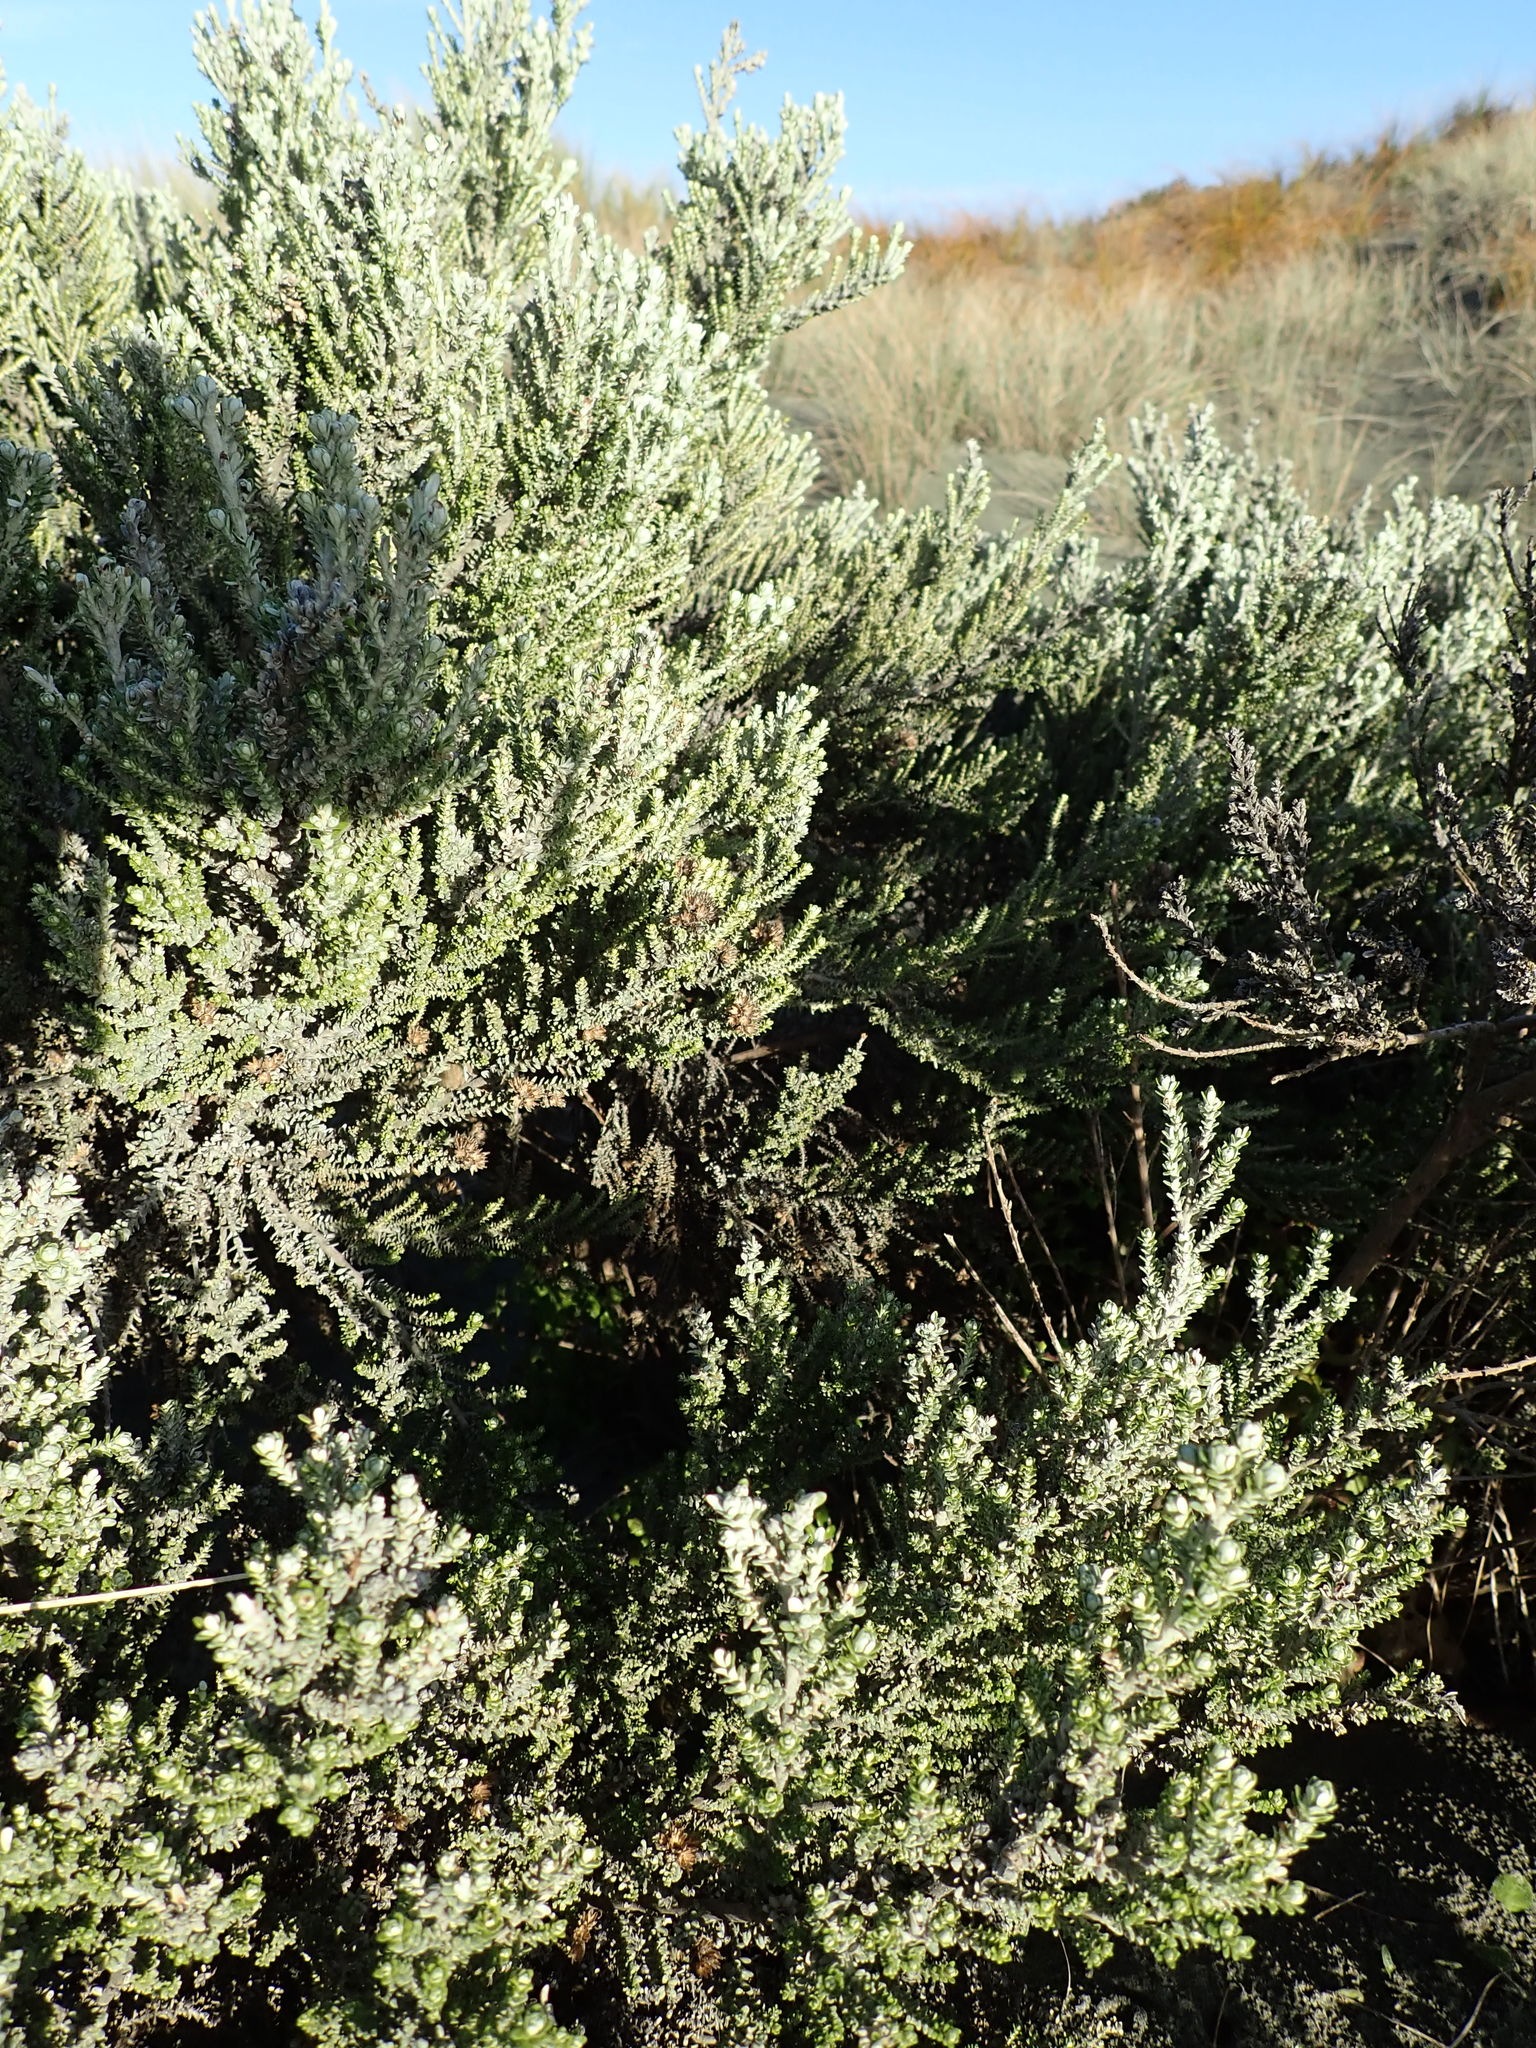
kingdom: Plantae
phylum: Tracheophyta
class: Magnoliopsida
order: Asterales
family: Asteraceae
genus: Ozothamnus
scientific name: Ozothamnus leptophyllus
